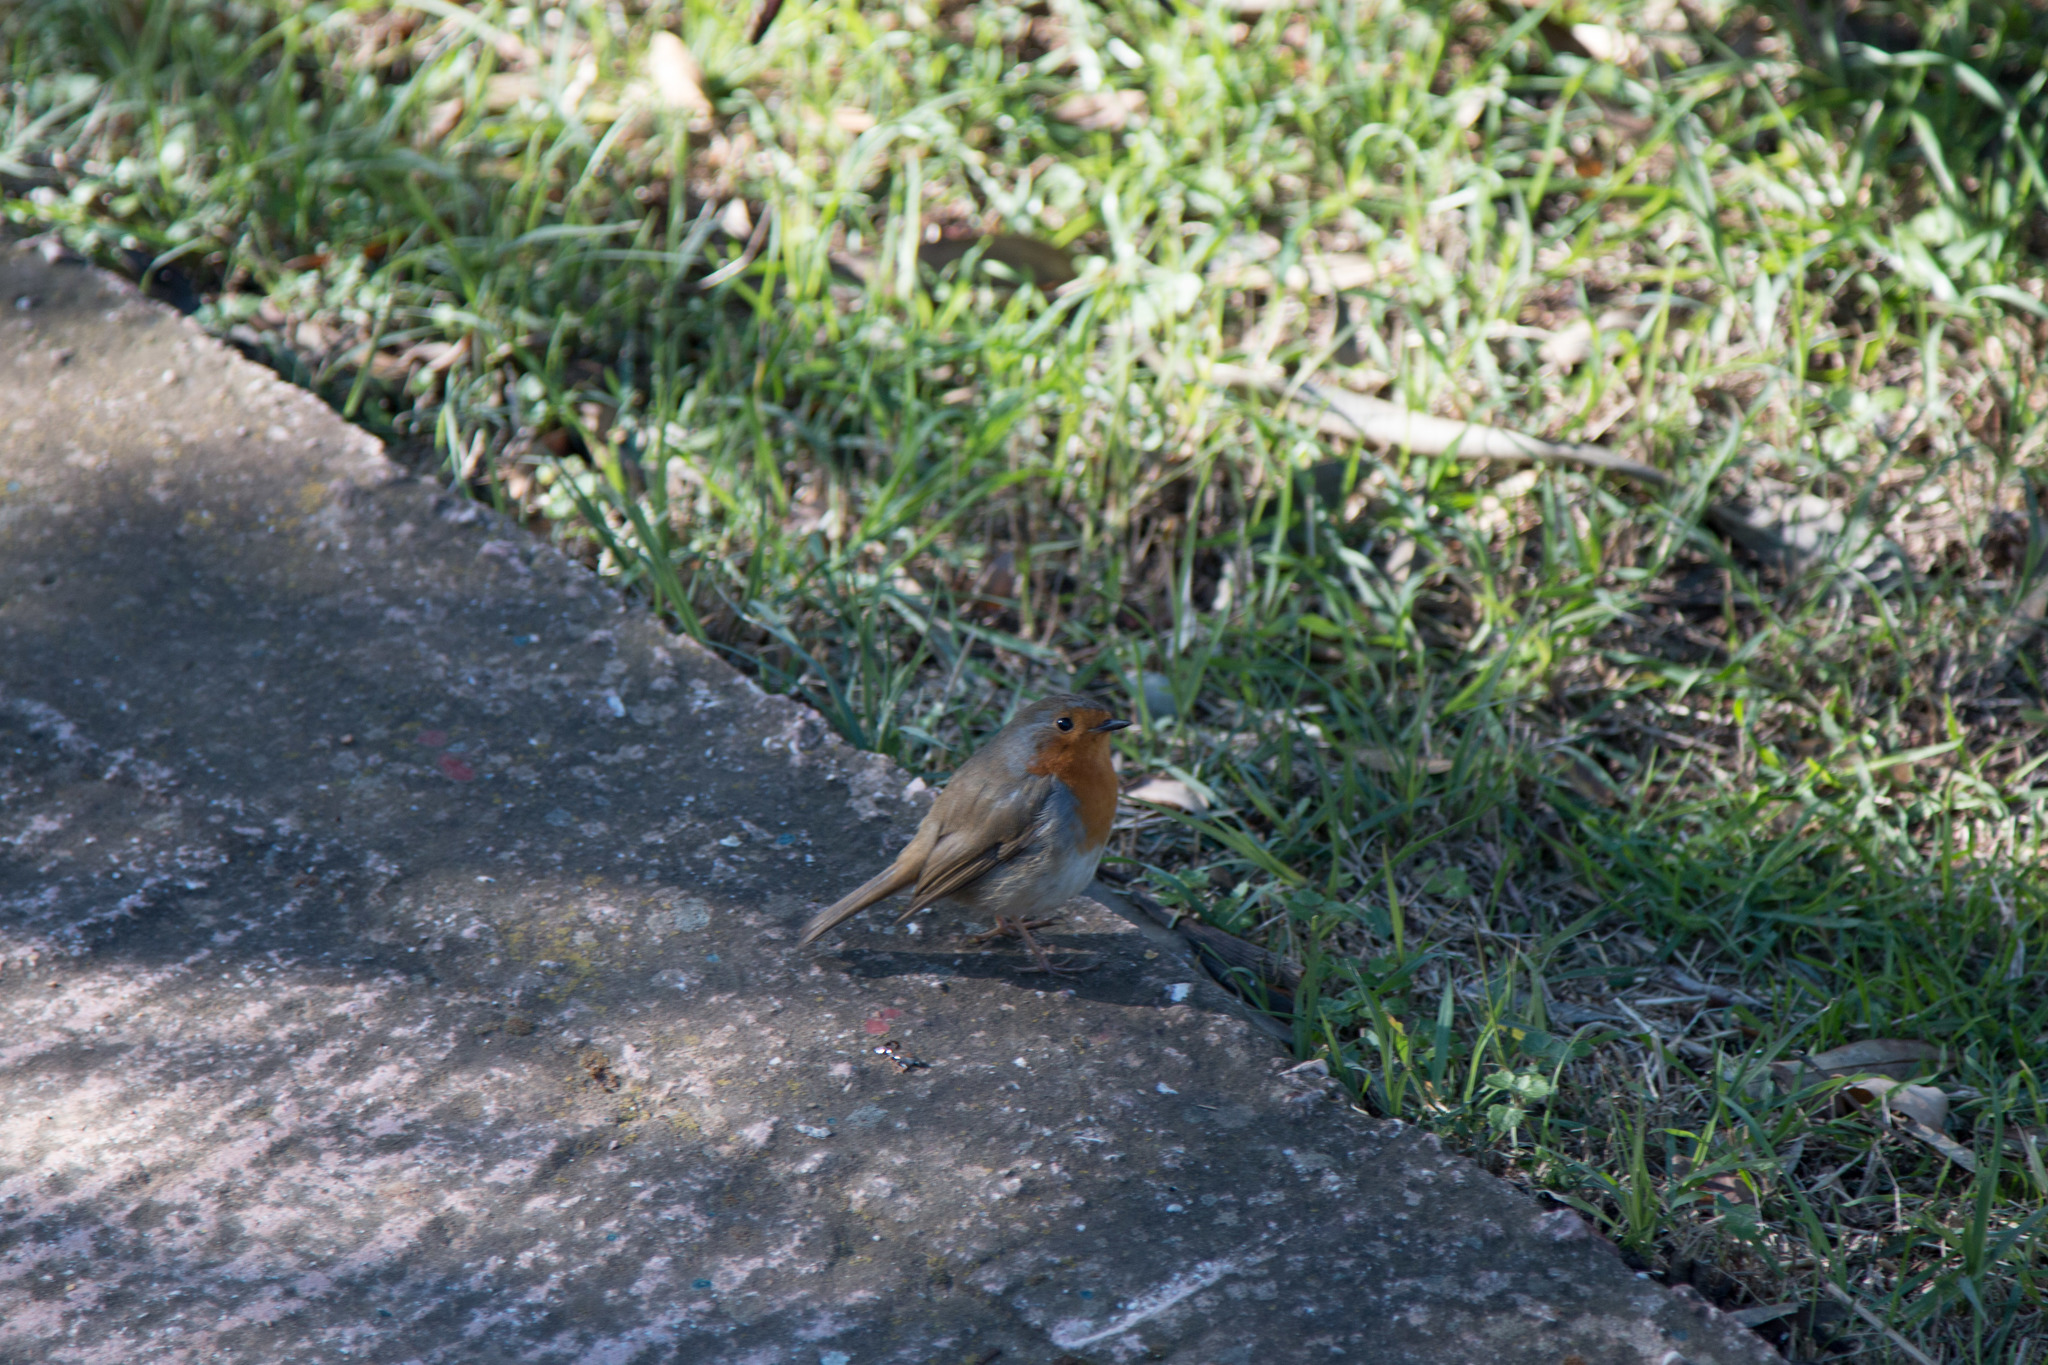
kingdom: Animalia
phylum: Chordata
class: Aves
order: Passeriformes
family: Muscicapidae
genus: Erithacus
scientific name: Erithacus rubecula
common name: European robin
